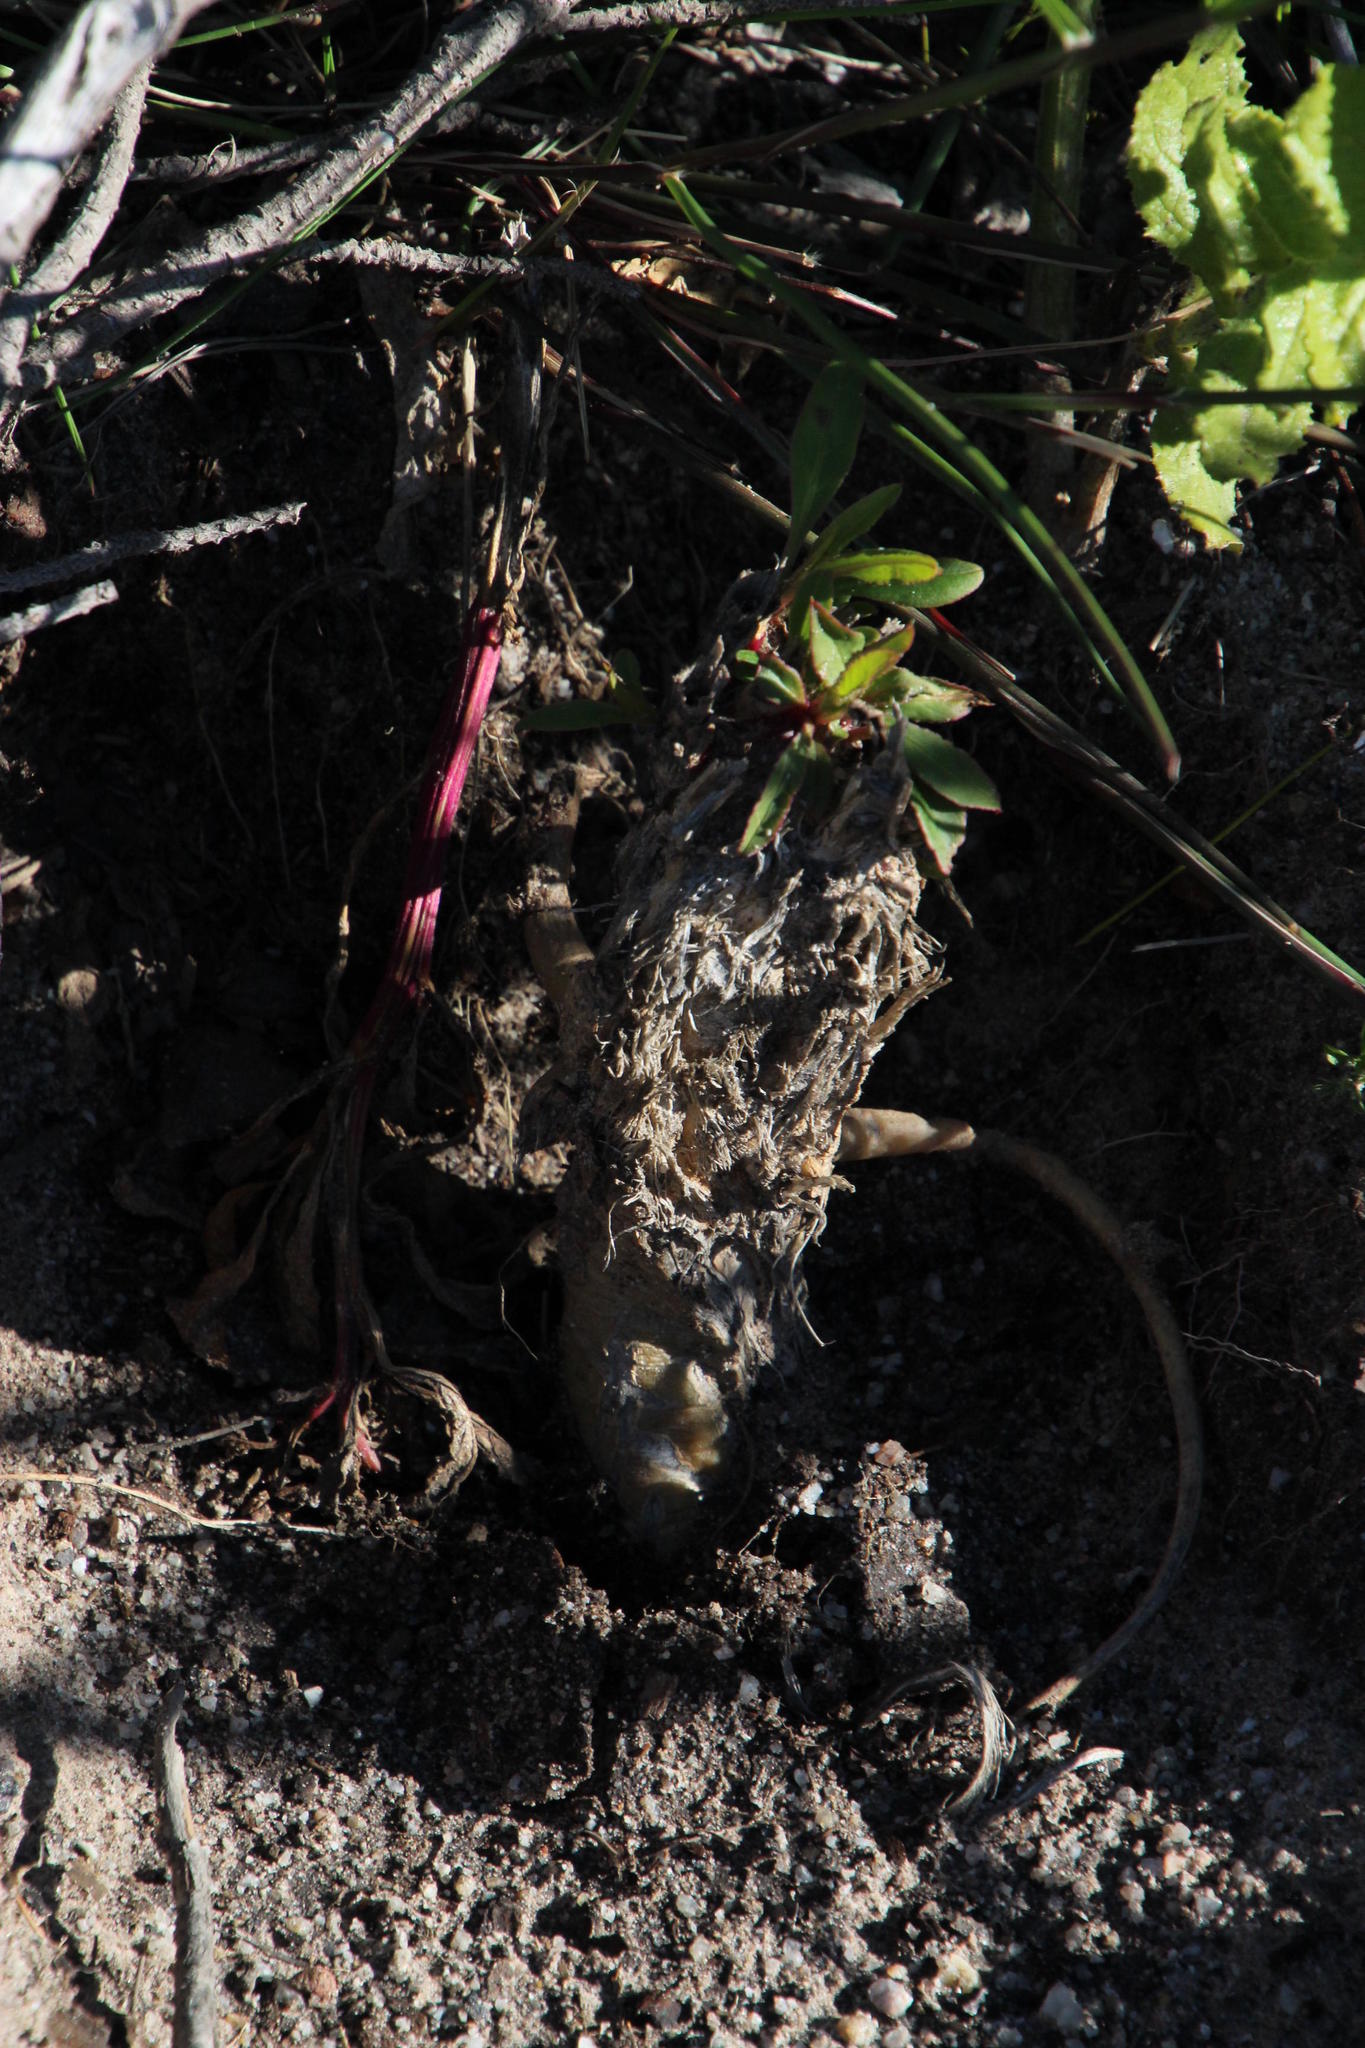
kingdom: Plantae
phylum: Tracheophyta
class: Magnoliopsida
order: Caryophyllales
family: Phytolaccaceae
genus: Phytolacca
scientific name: Phytolacca icosandra
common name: Button pokeweed
